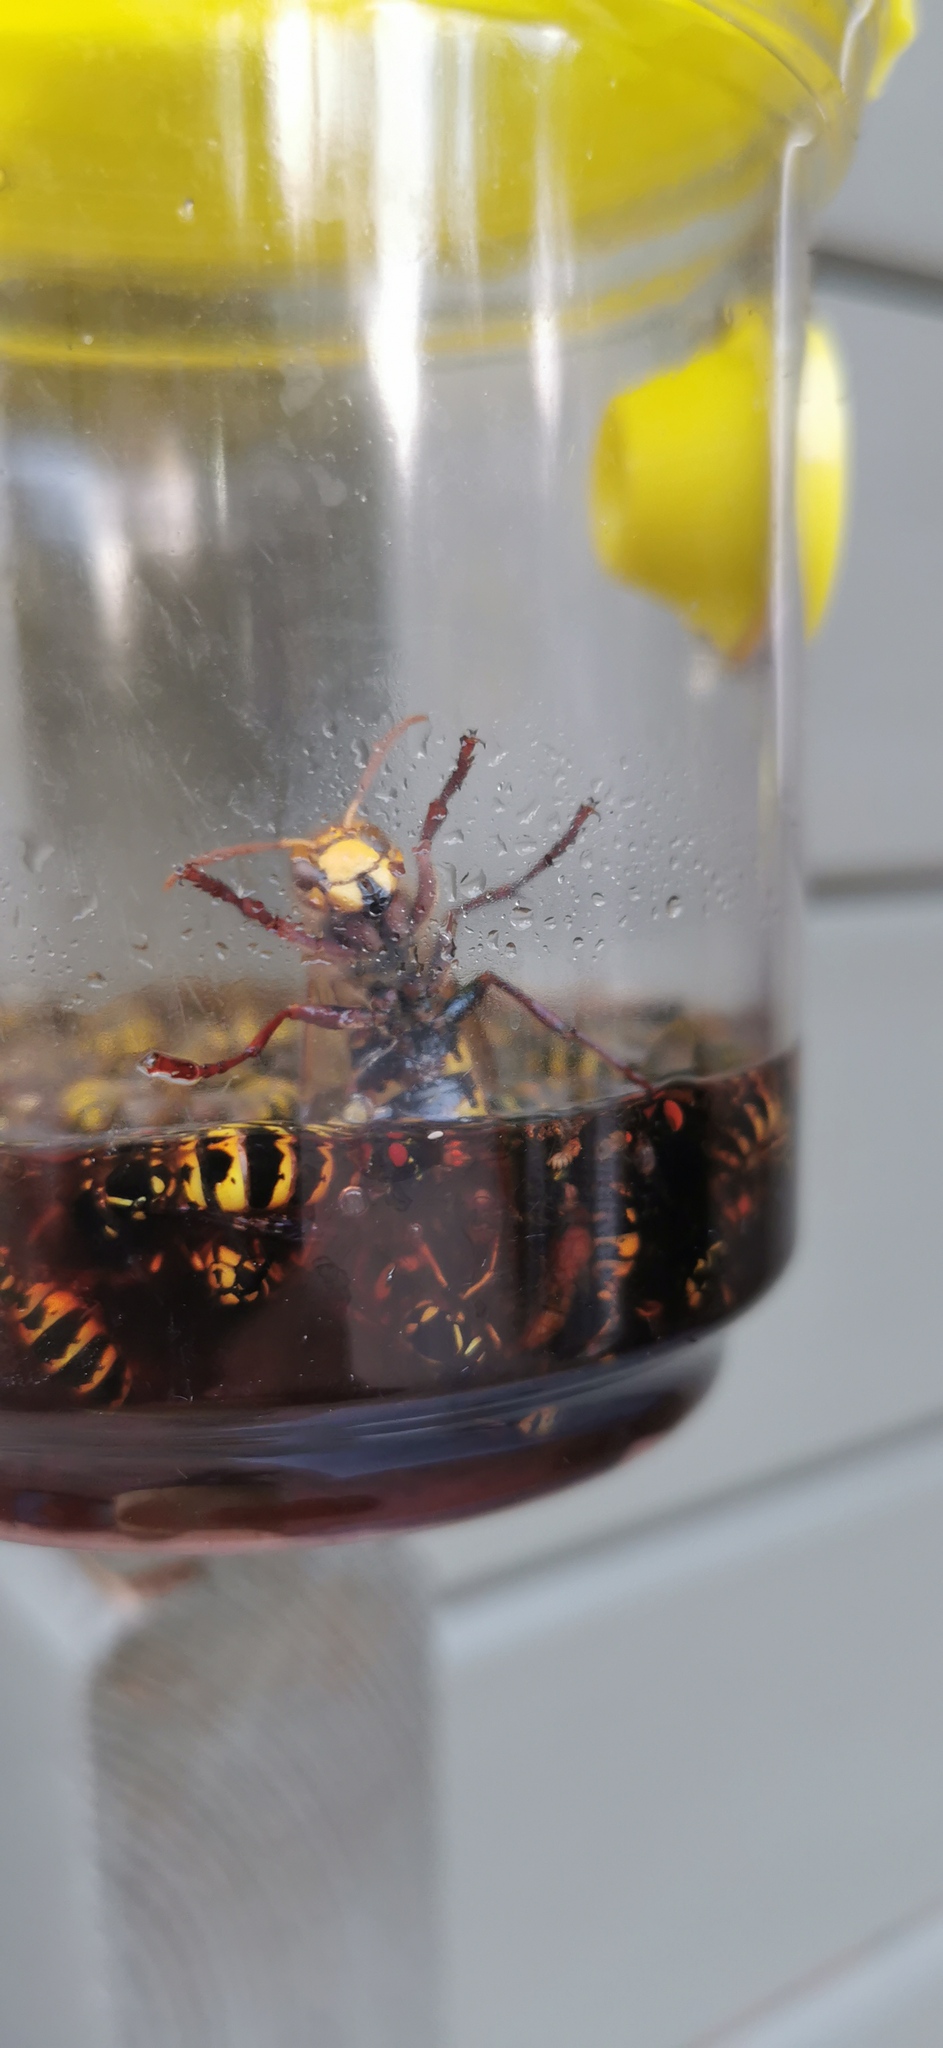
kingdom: Animalia
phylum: Arthropoda
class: Insecta
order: Hymenoptera
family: Vespidae
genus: Vespa
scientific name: Vespa crabro
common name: Hornet
